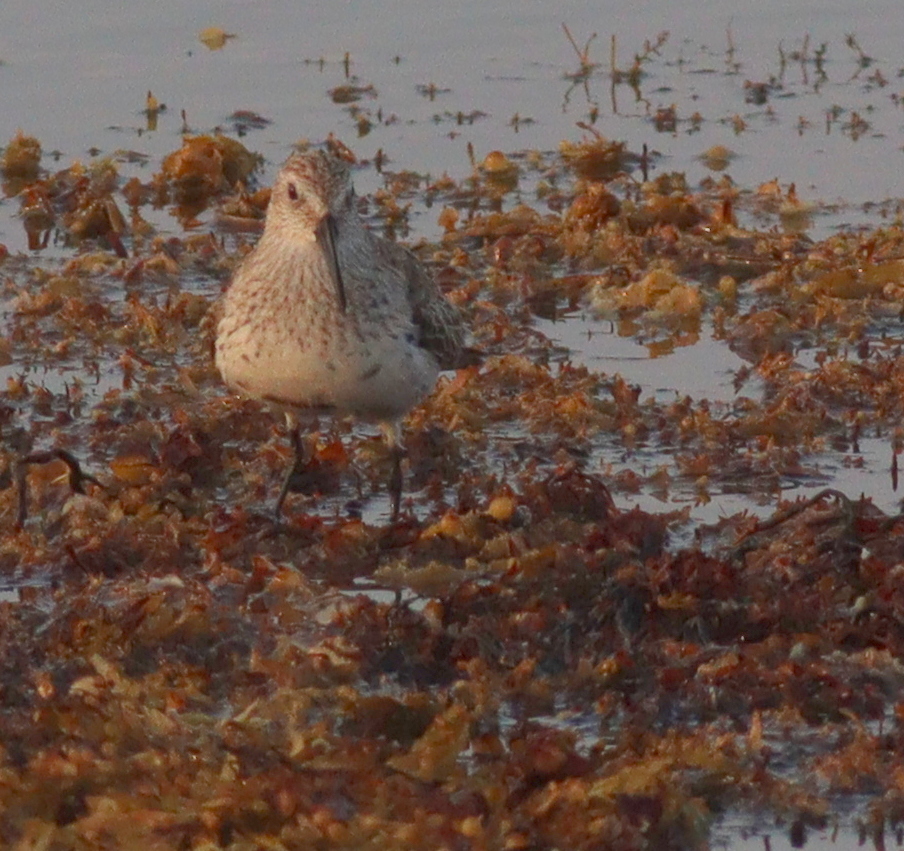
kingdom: Animalia
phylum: Chordata
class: Aves
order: Charadriiformes
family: Scolopacidae
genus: Calidris
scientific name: Calidris alpina
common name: Dunlin
